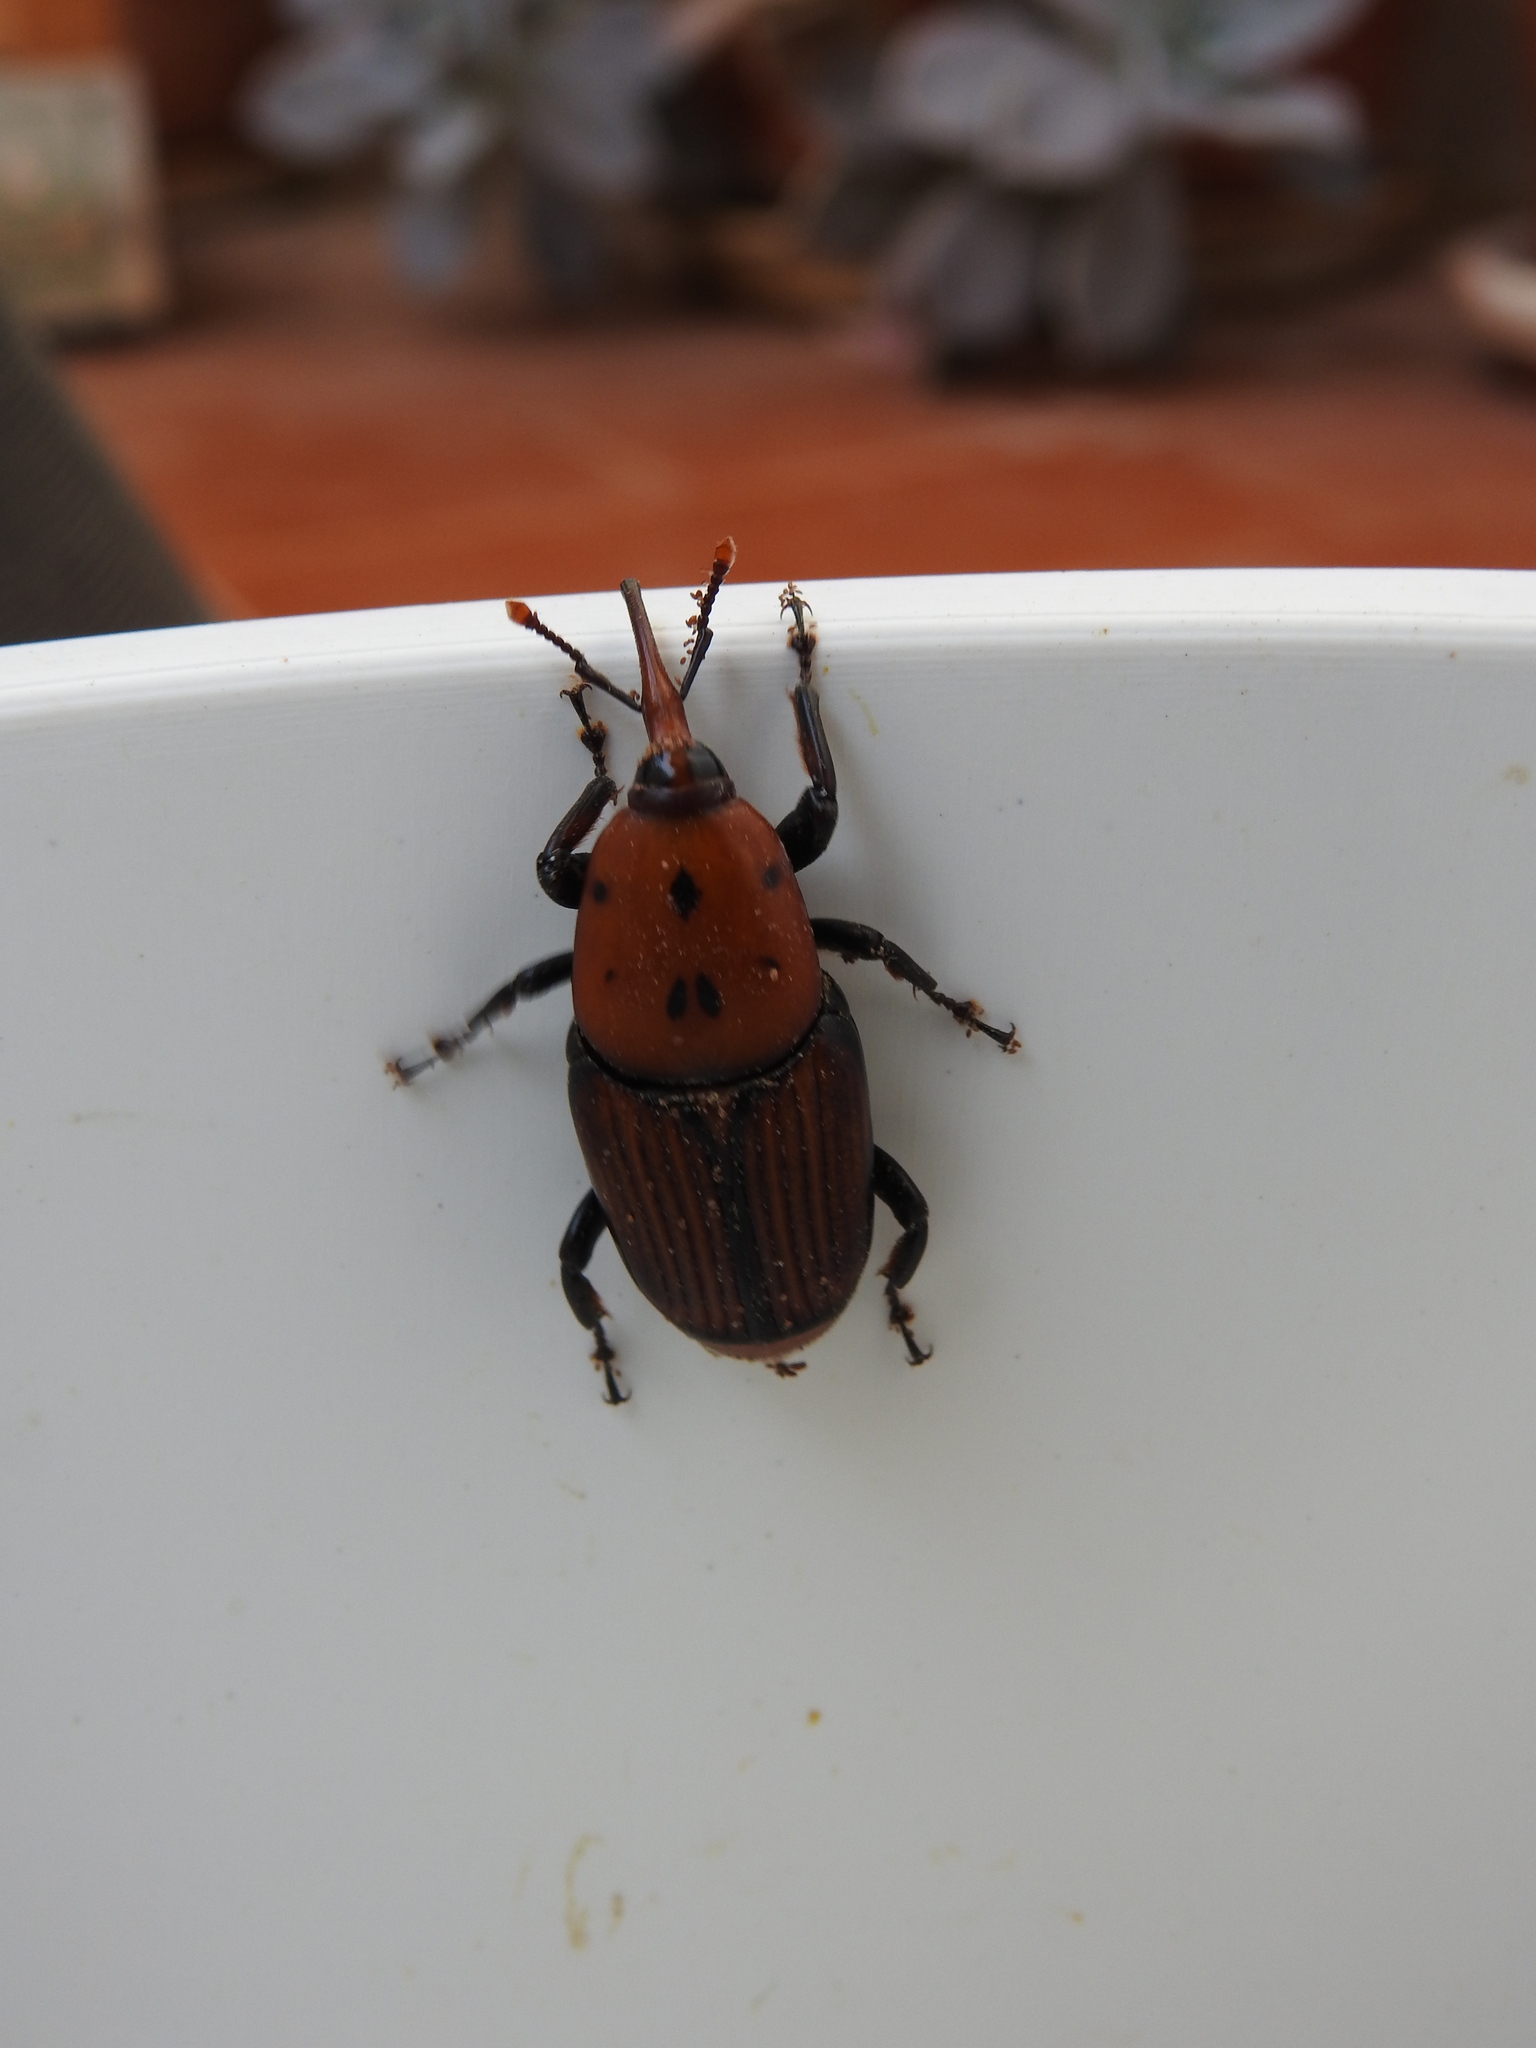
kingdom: Animalia
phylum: Arthropoda
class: Insecta
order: Coleoptera
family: Dryophthoridae
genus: Rhynchophorus
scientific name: Rhynchophorus ferrugineus
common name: Red palm weevil
